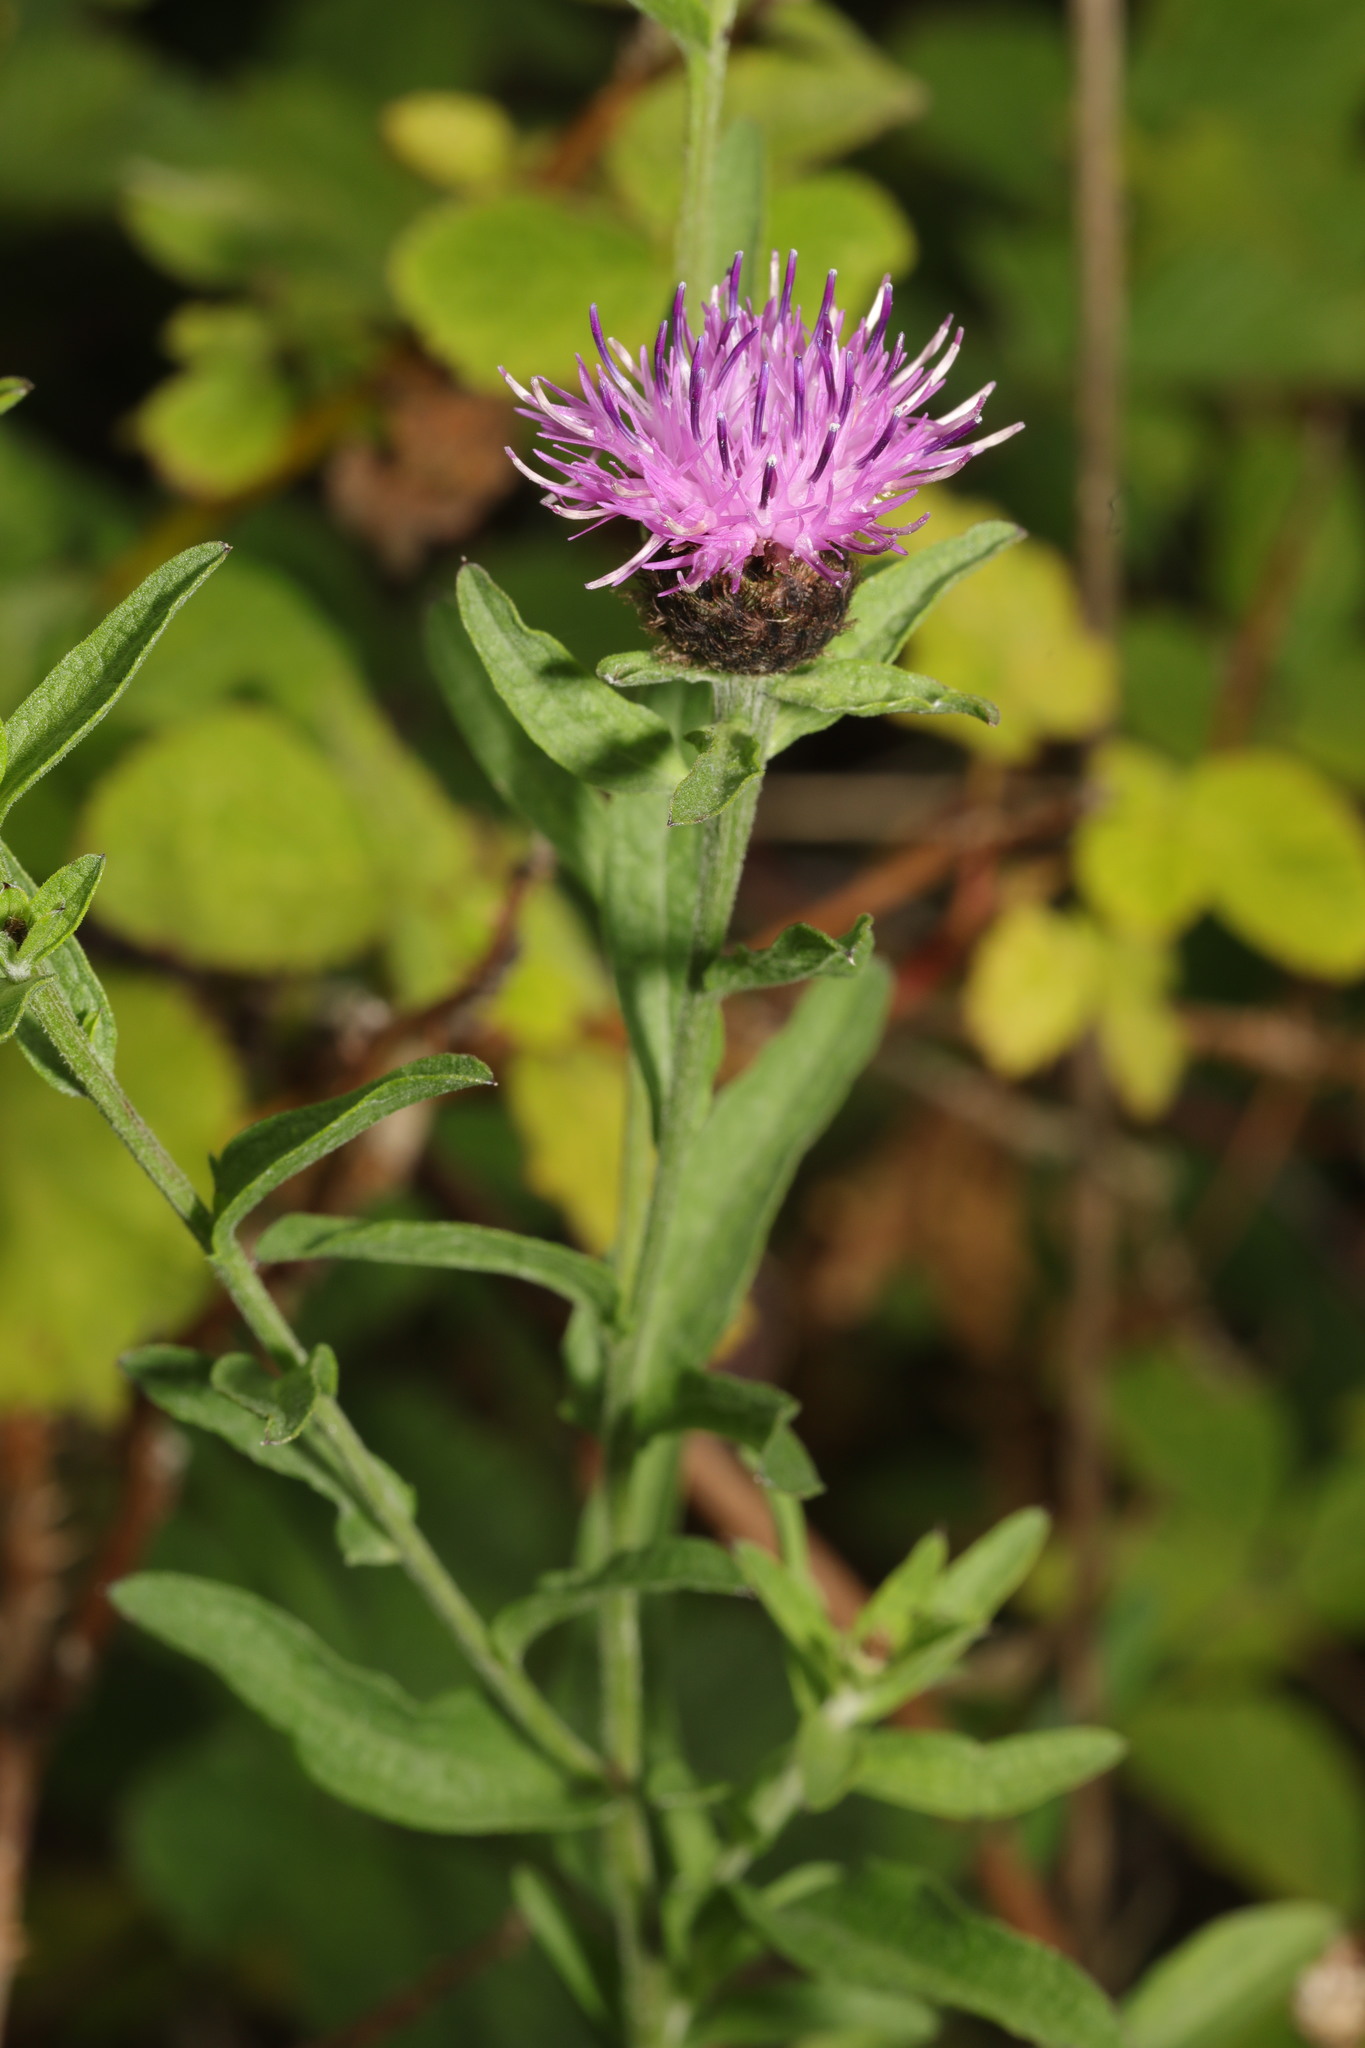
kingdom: Plantae
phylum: Tracheophyta
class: Magnoliopsida
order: Asterales
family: Asteraceae
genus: Centaurea
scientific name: Centaurea nigra
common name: Lesser knapweed
